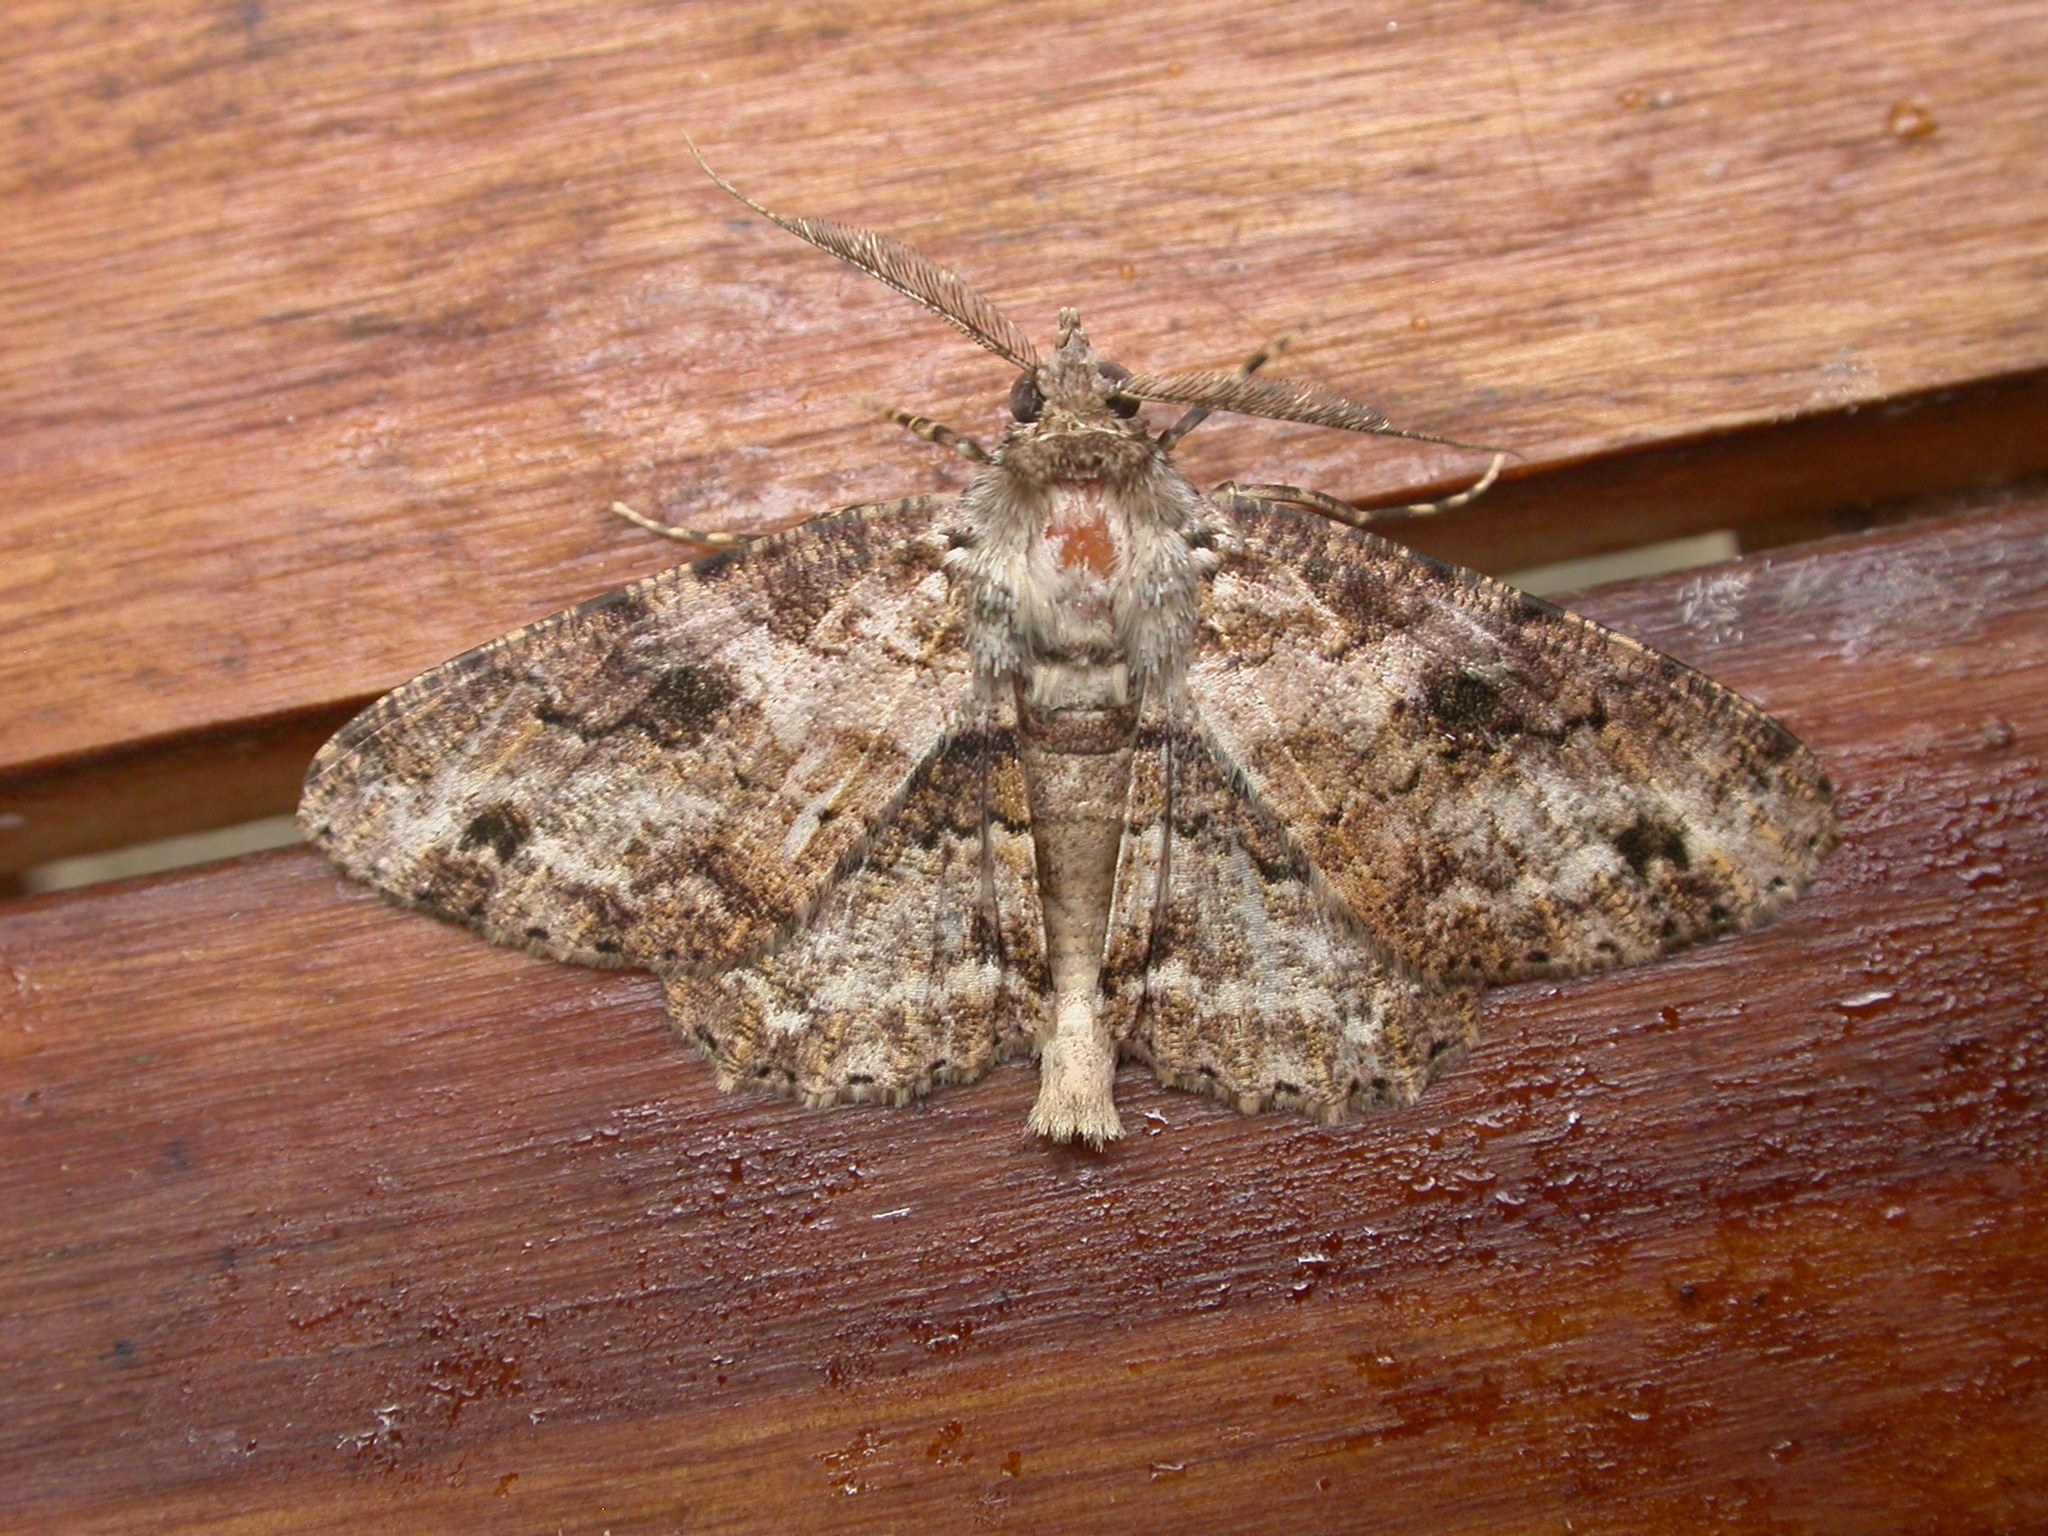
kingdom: Animalia
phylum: Arthropoda
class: Insecta
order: Lepidoptera
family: Geometridae
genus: Cleora
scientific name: Cleora repetita
